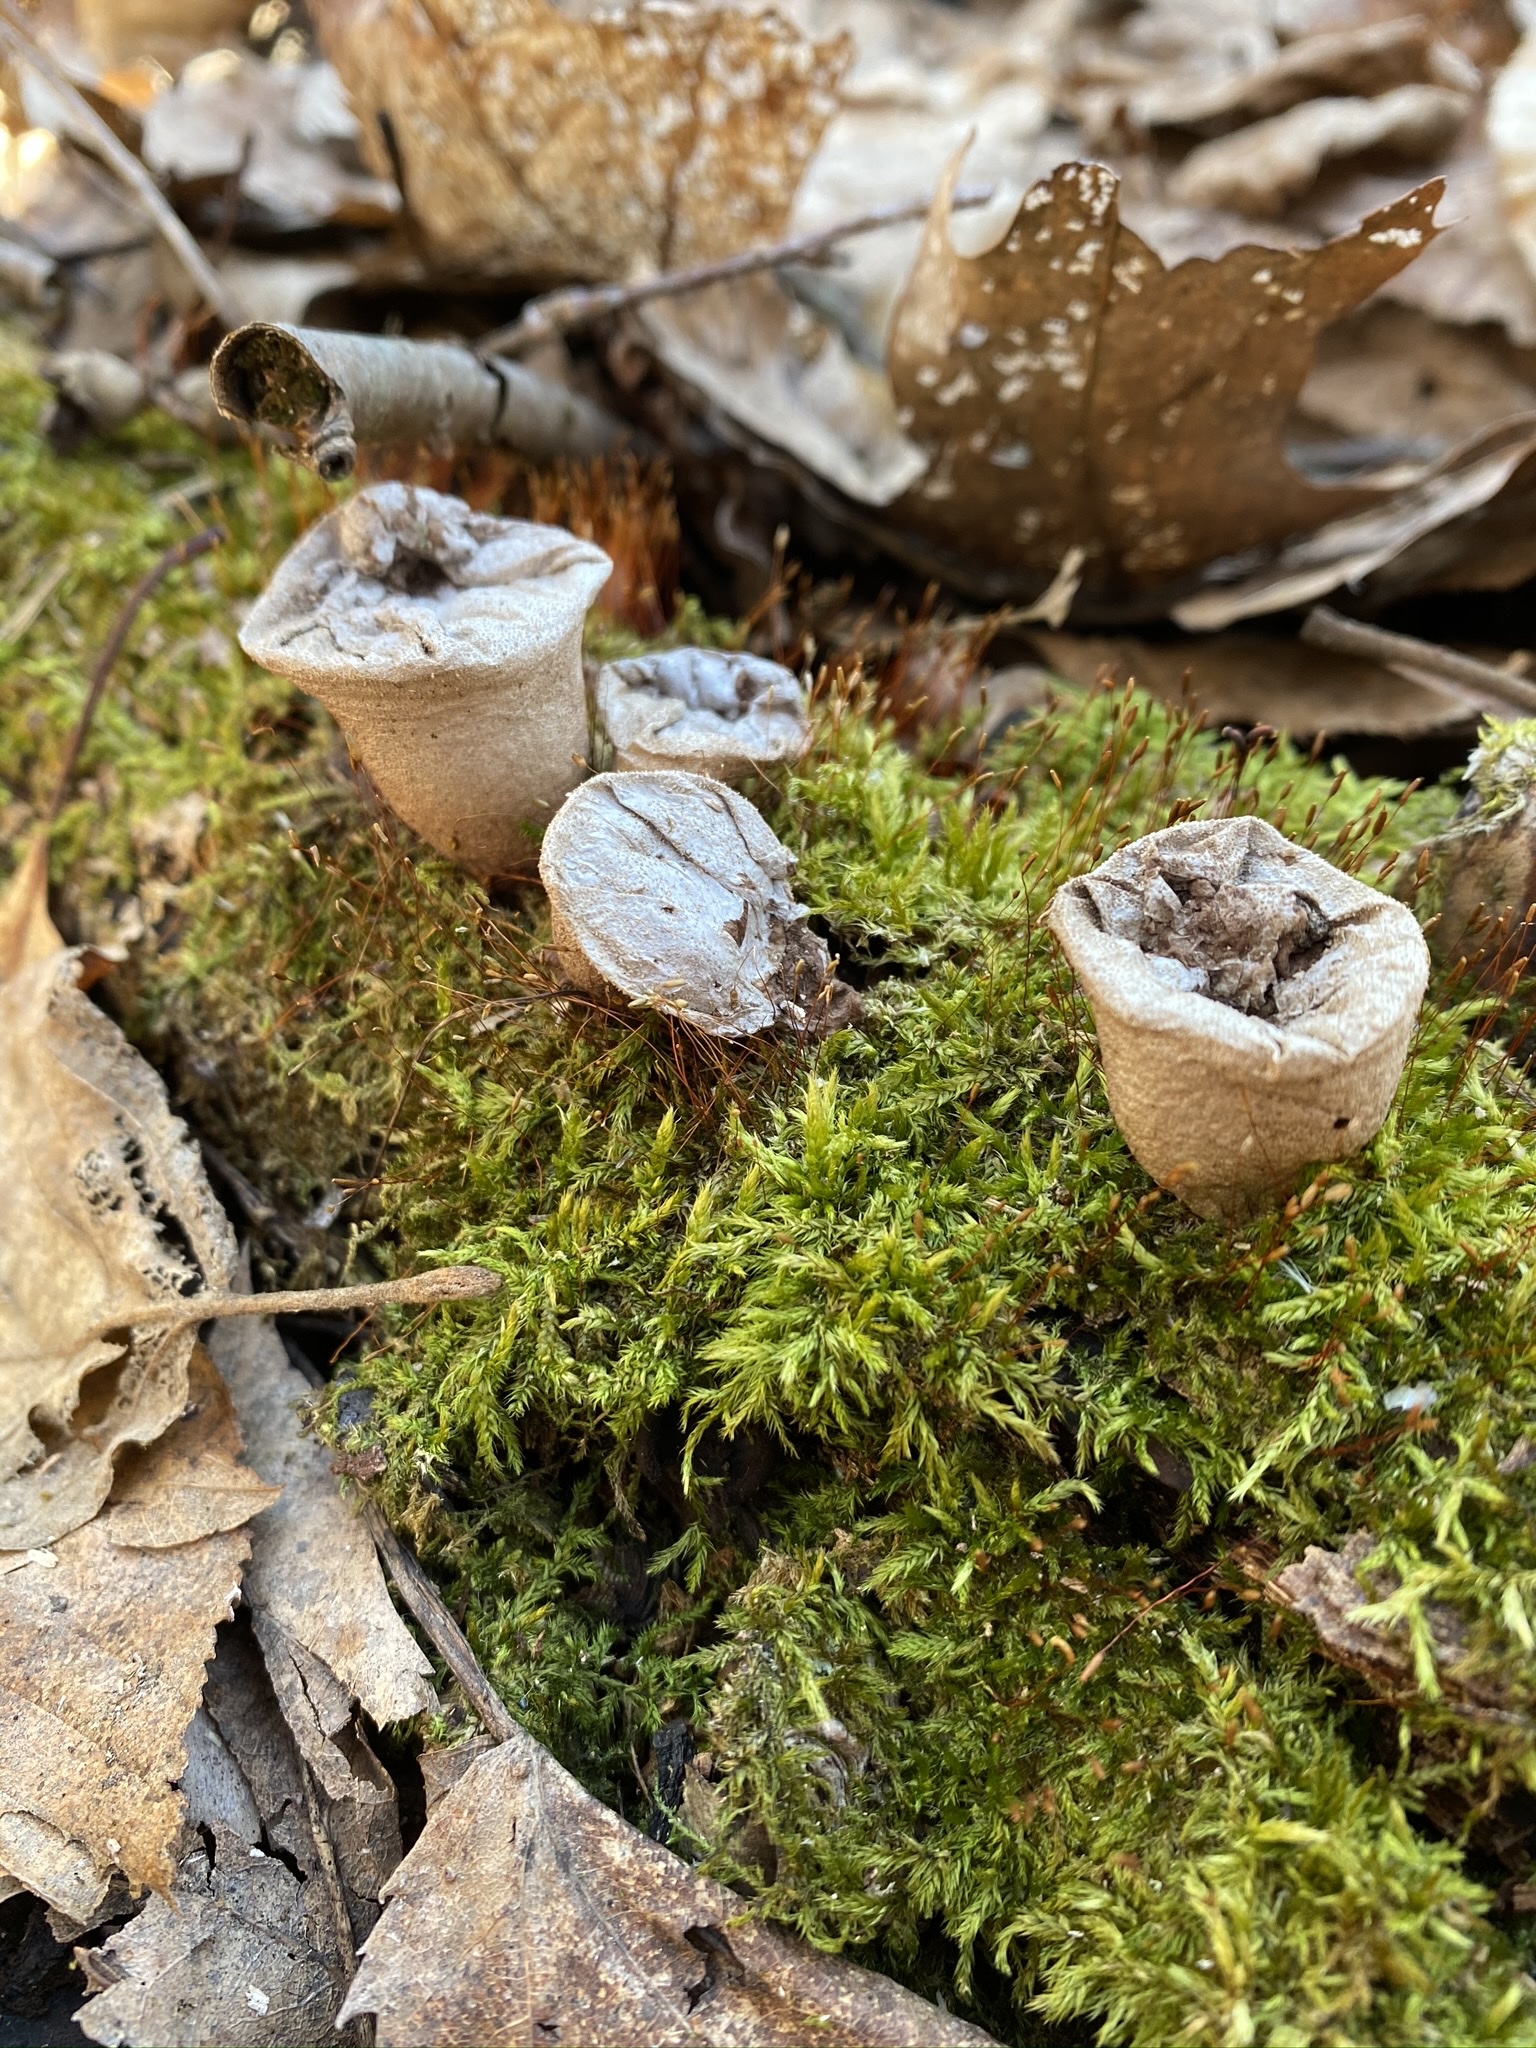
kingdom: Fungi
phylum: Basidiomycota
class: Agaricomycetes
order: Agaricales
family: Lycoperdaceae
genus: Apioperdon
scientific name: Apioperdon pyriforme
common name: Pear-shaped puffball
